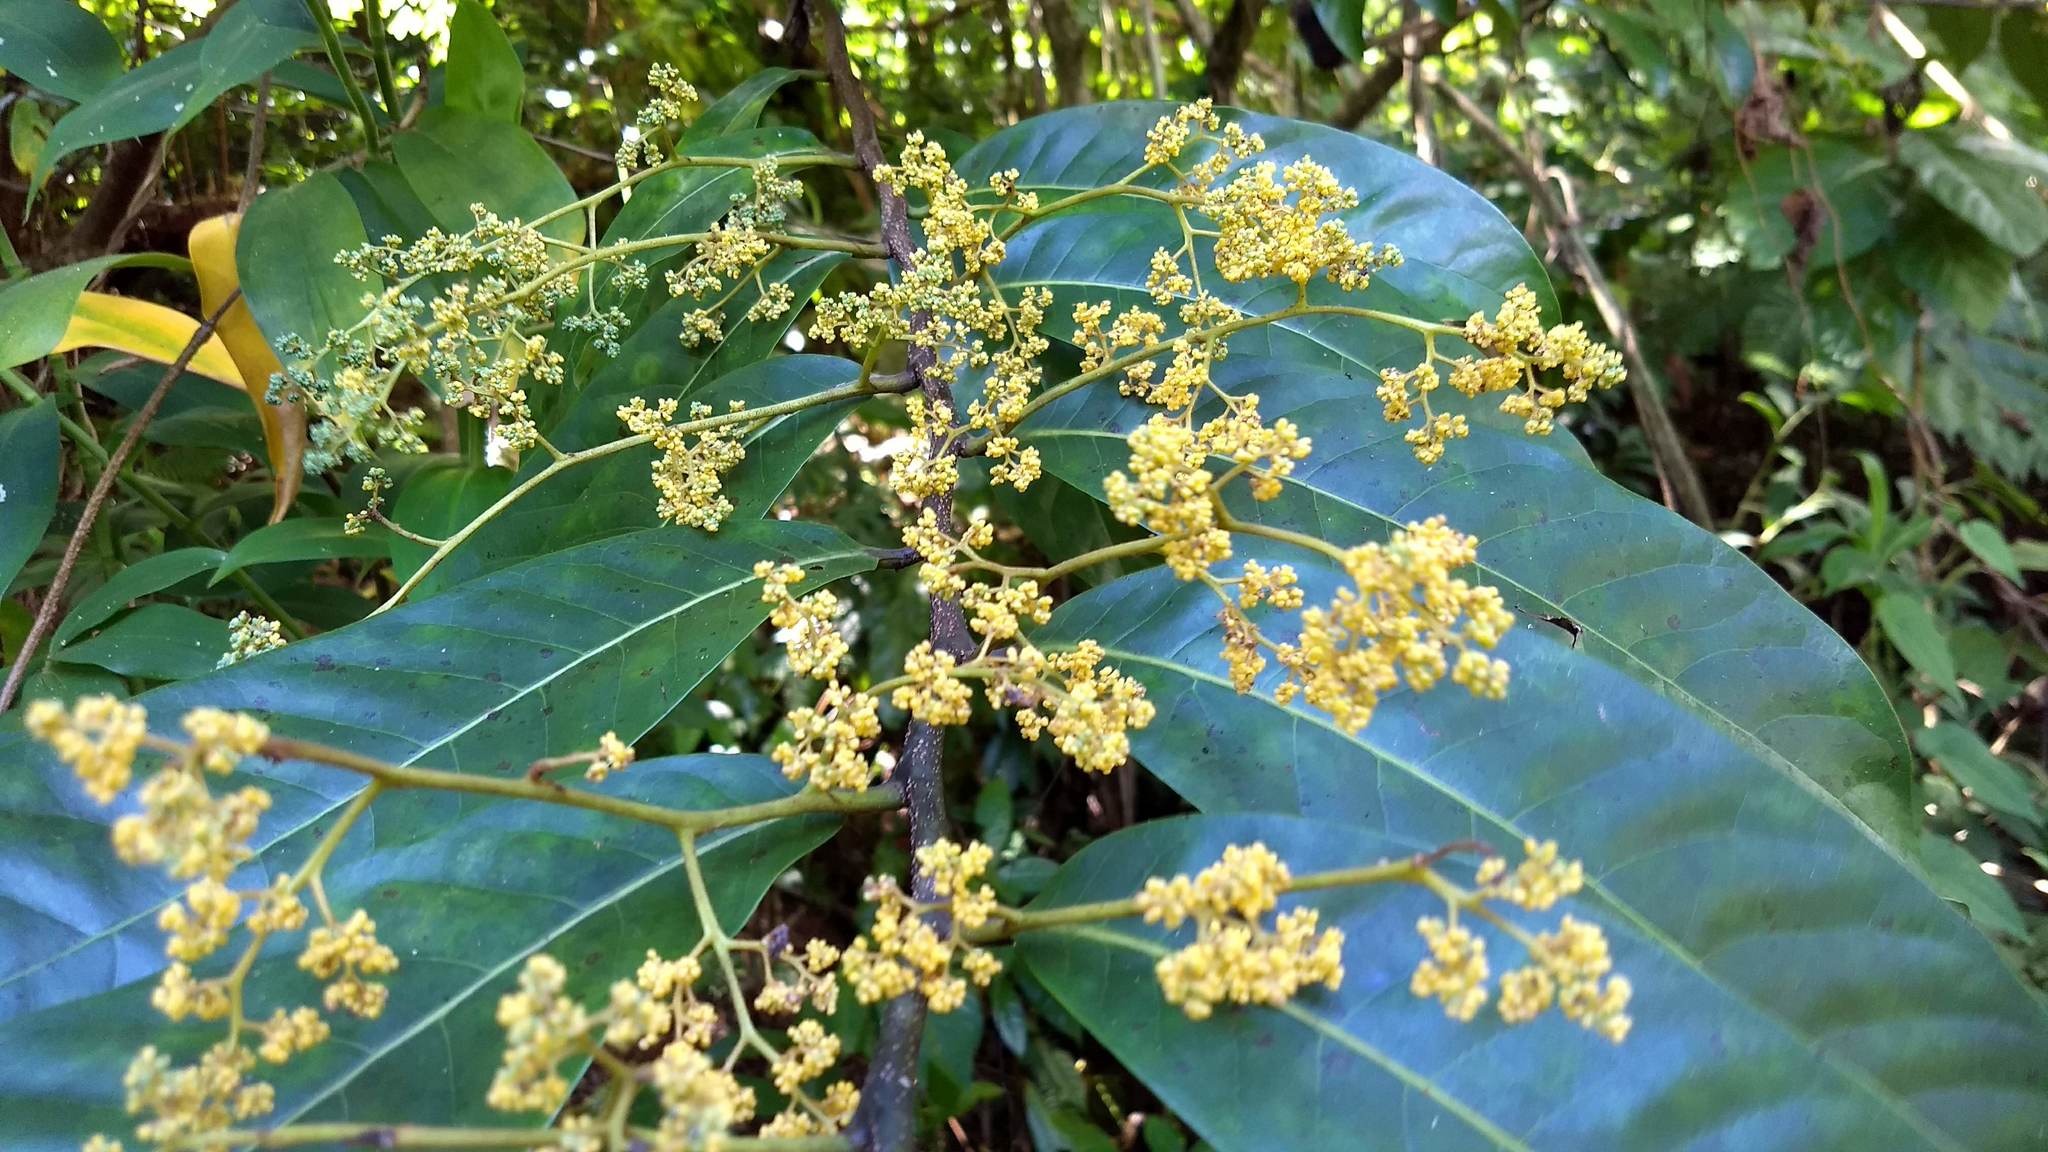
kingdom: Plantae
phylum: Tracheophyta
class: Magnoliopsida
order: Magnoliales
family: Myristicaceae
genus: Horsfieldia
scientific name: Horsfieldia irya
